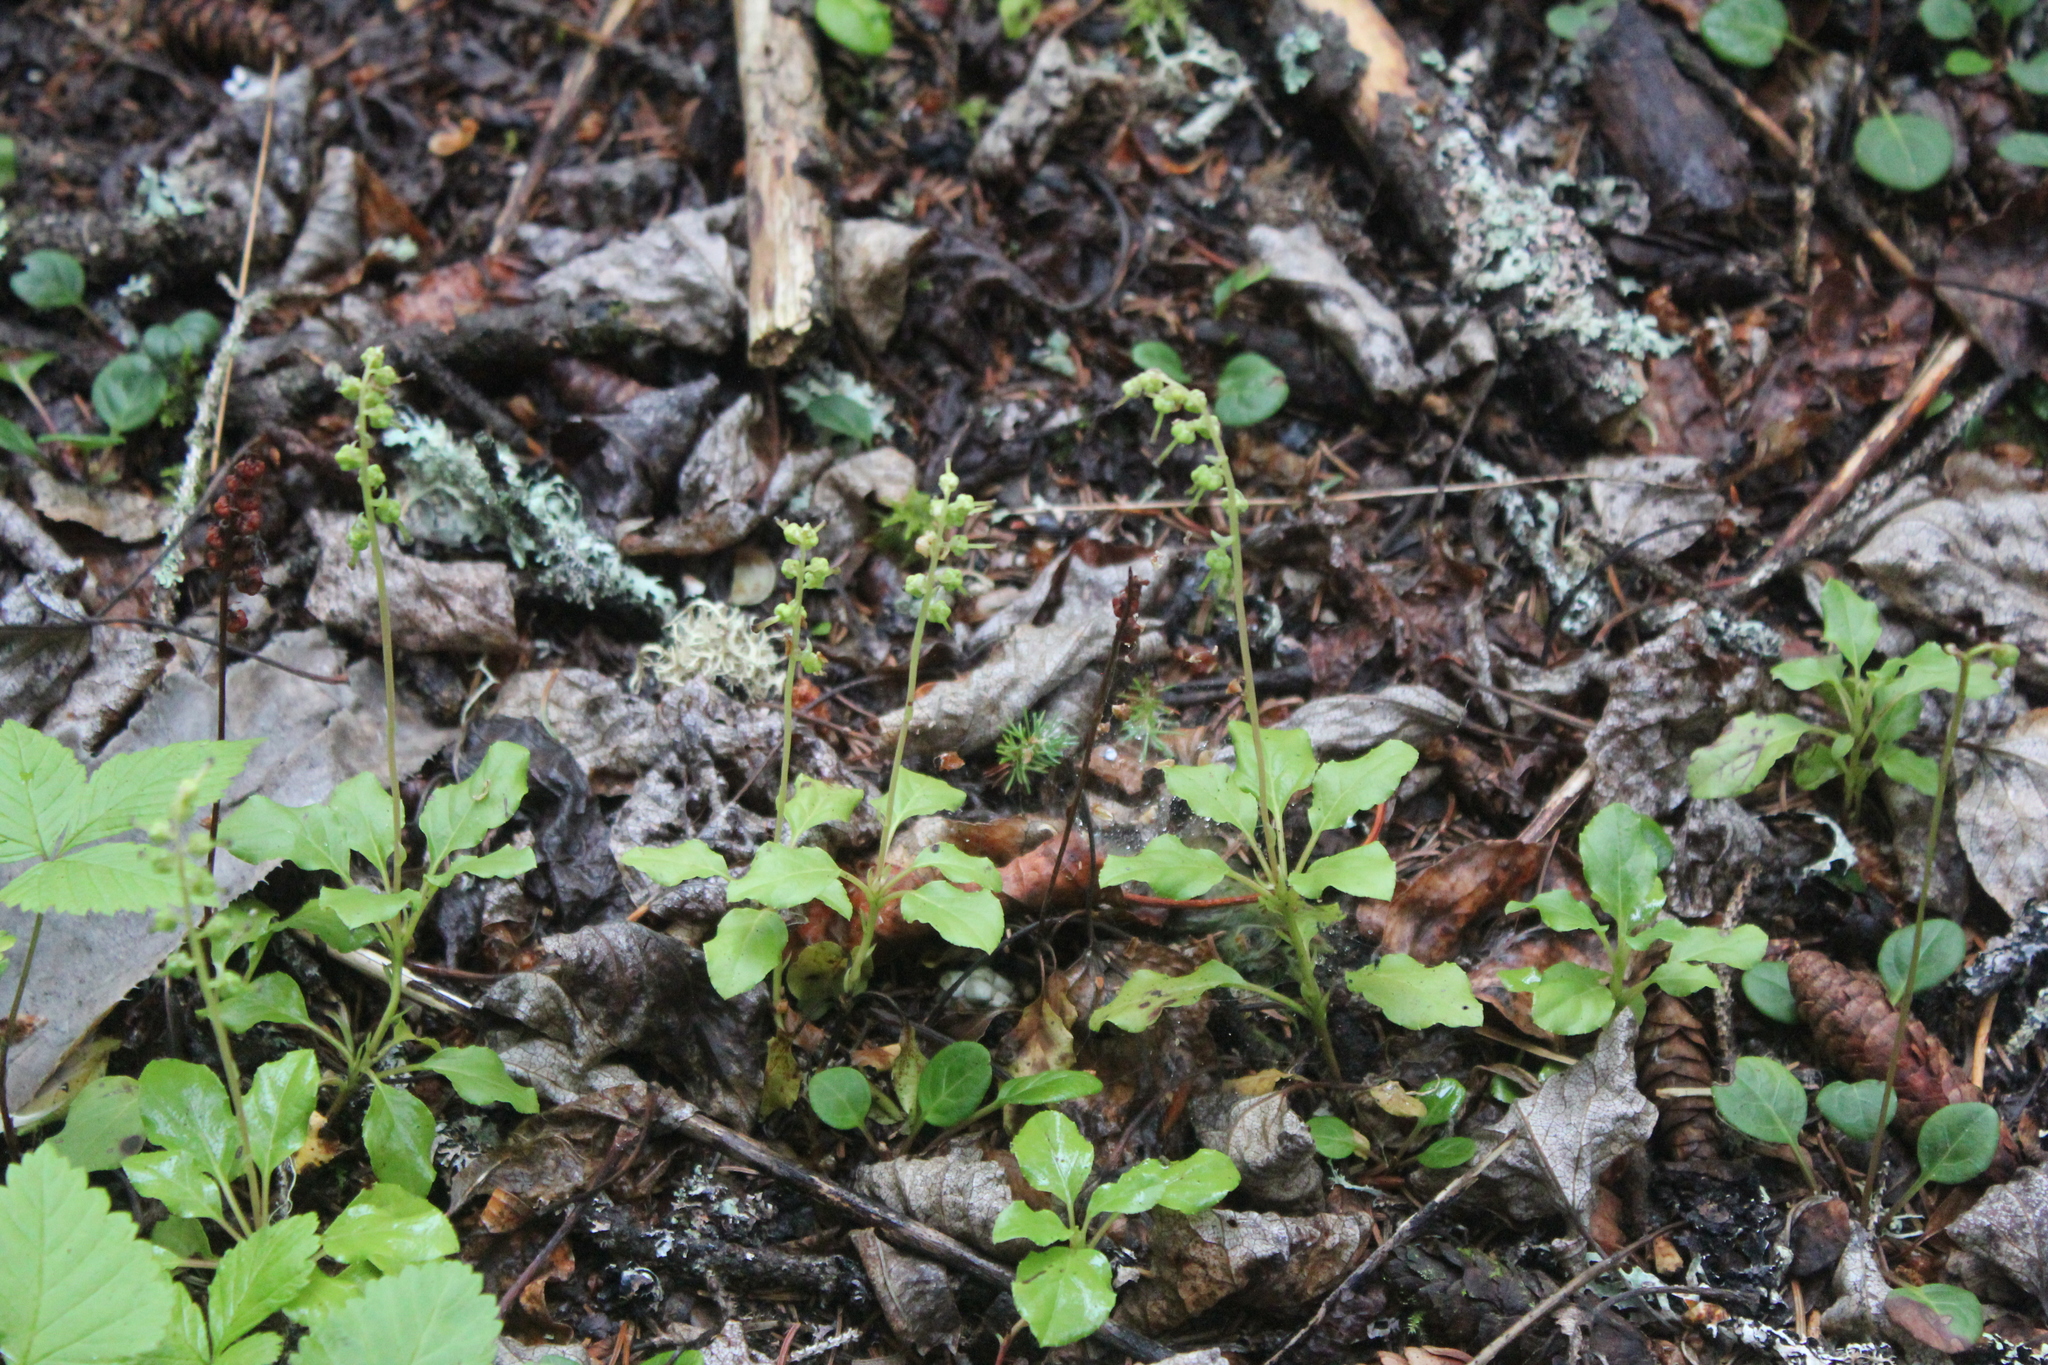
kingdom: Plantae
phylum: Tracheophyta
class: Magnoliopsida
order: Ericales
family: Ericaceae
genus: Orthilia
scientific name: Orthilia secunda
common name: One-sided orthilia
